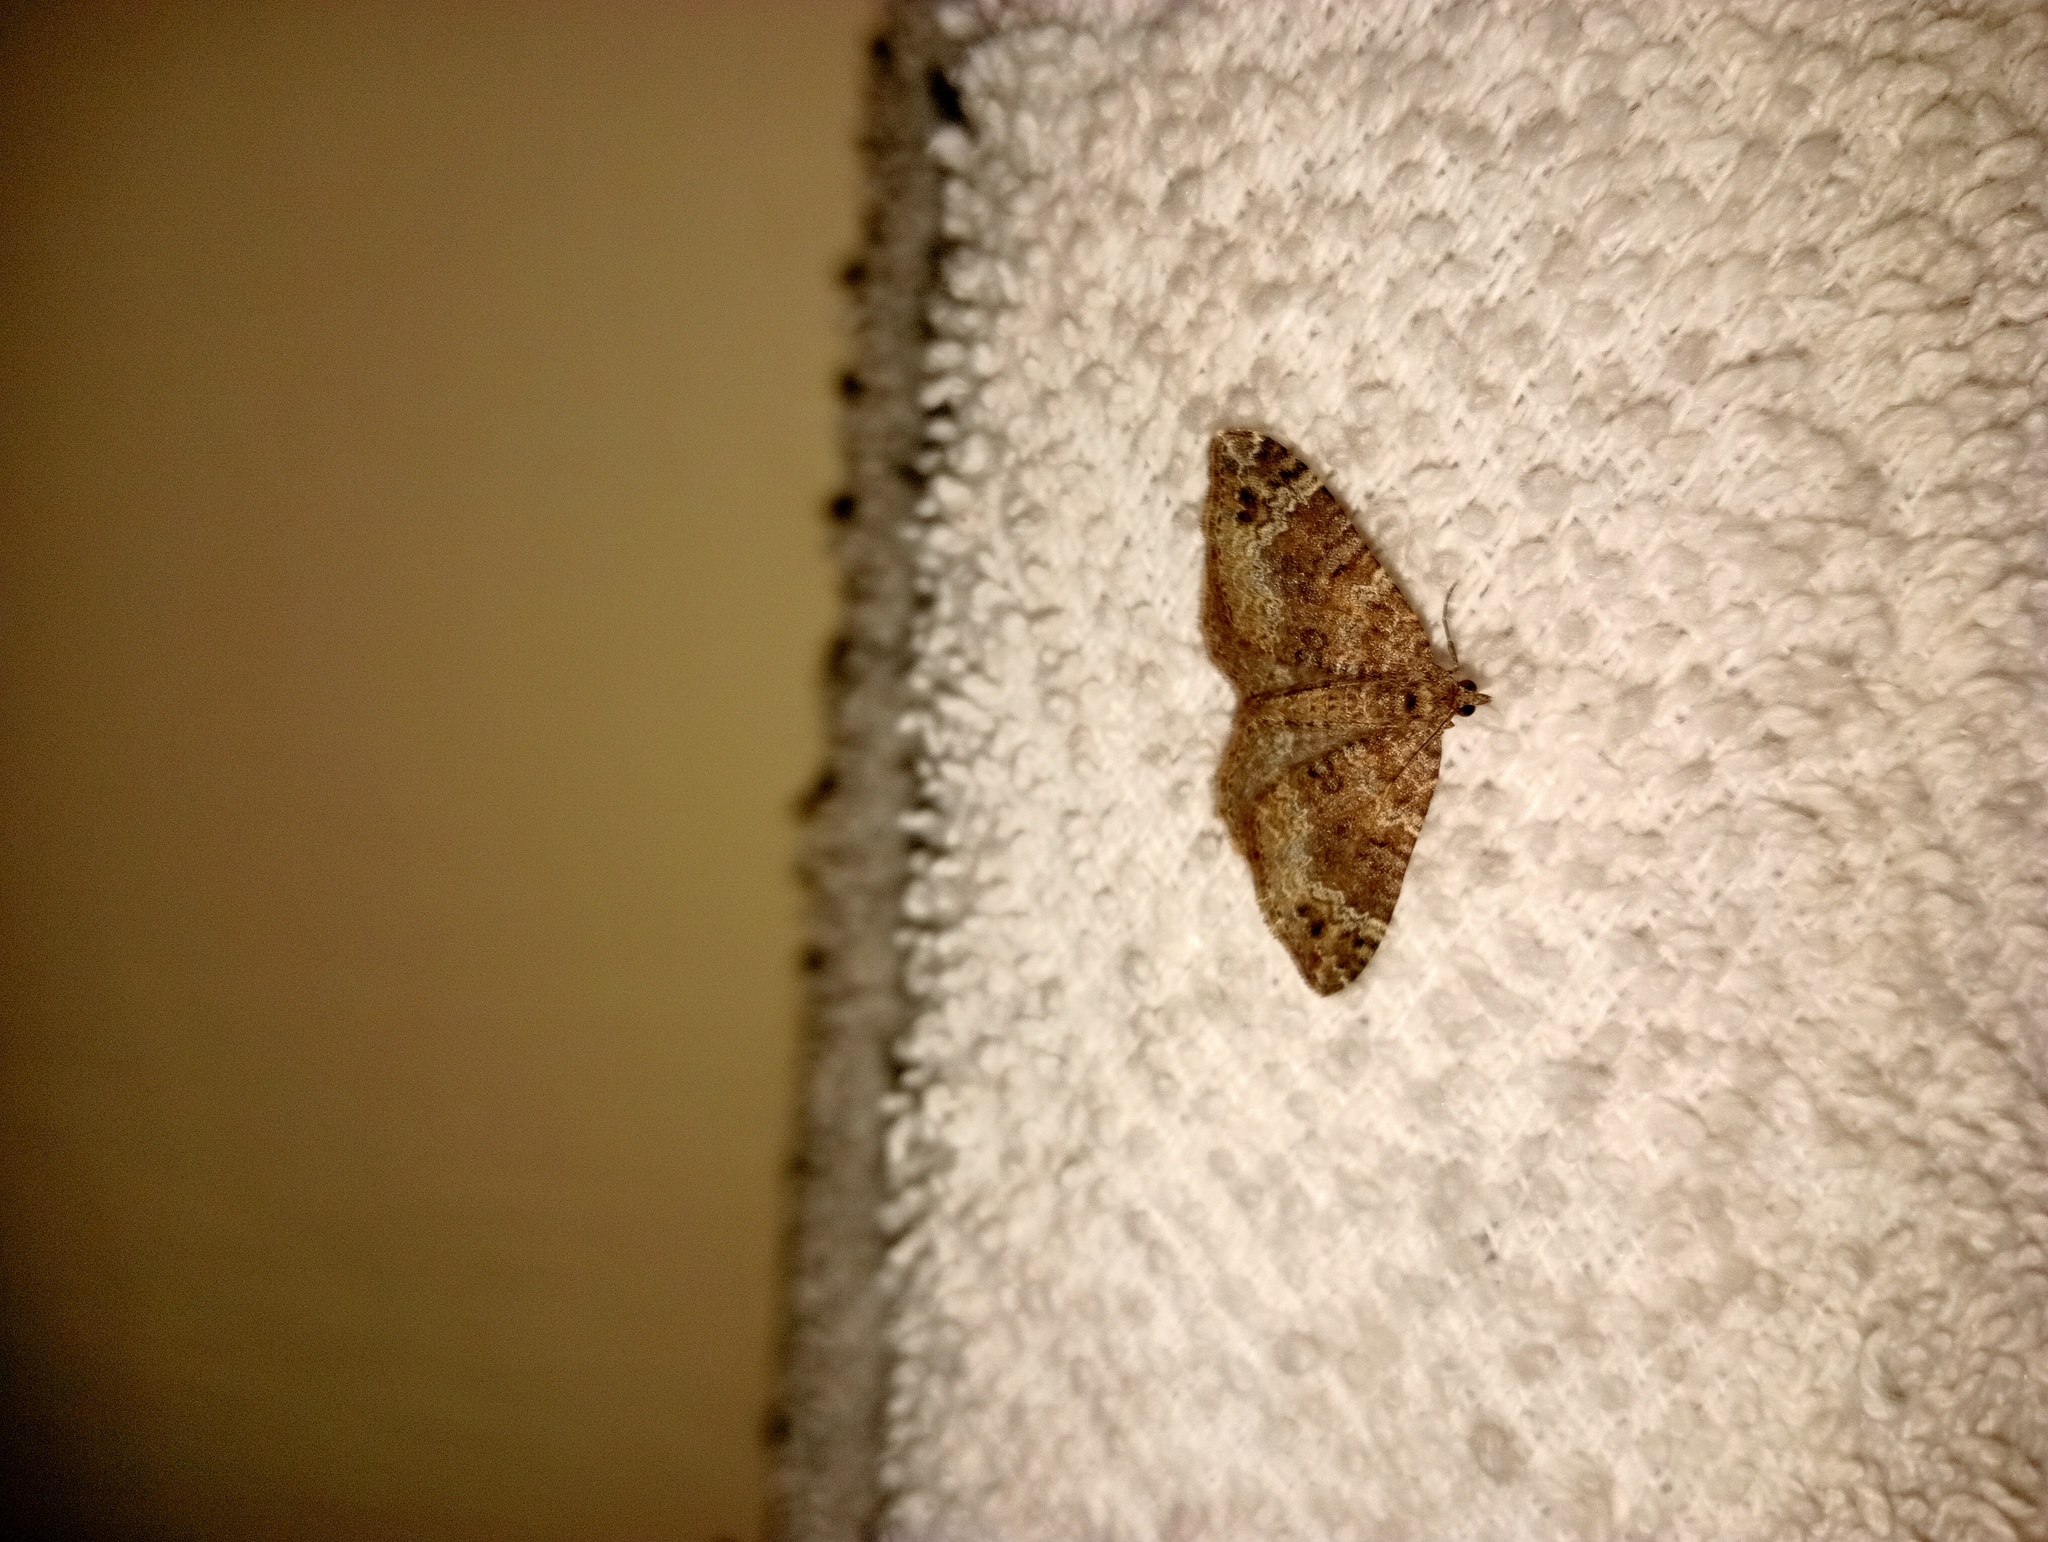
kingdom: Animalia
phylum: Arthropoda
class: Insecta
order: Lepidoptera
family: Geometridae
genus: Xanthorhoe
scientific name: Xanthorhoe saturata
